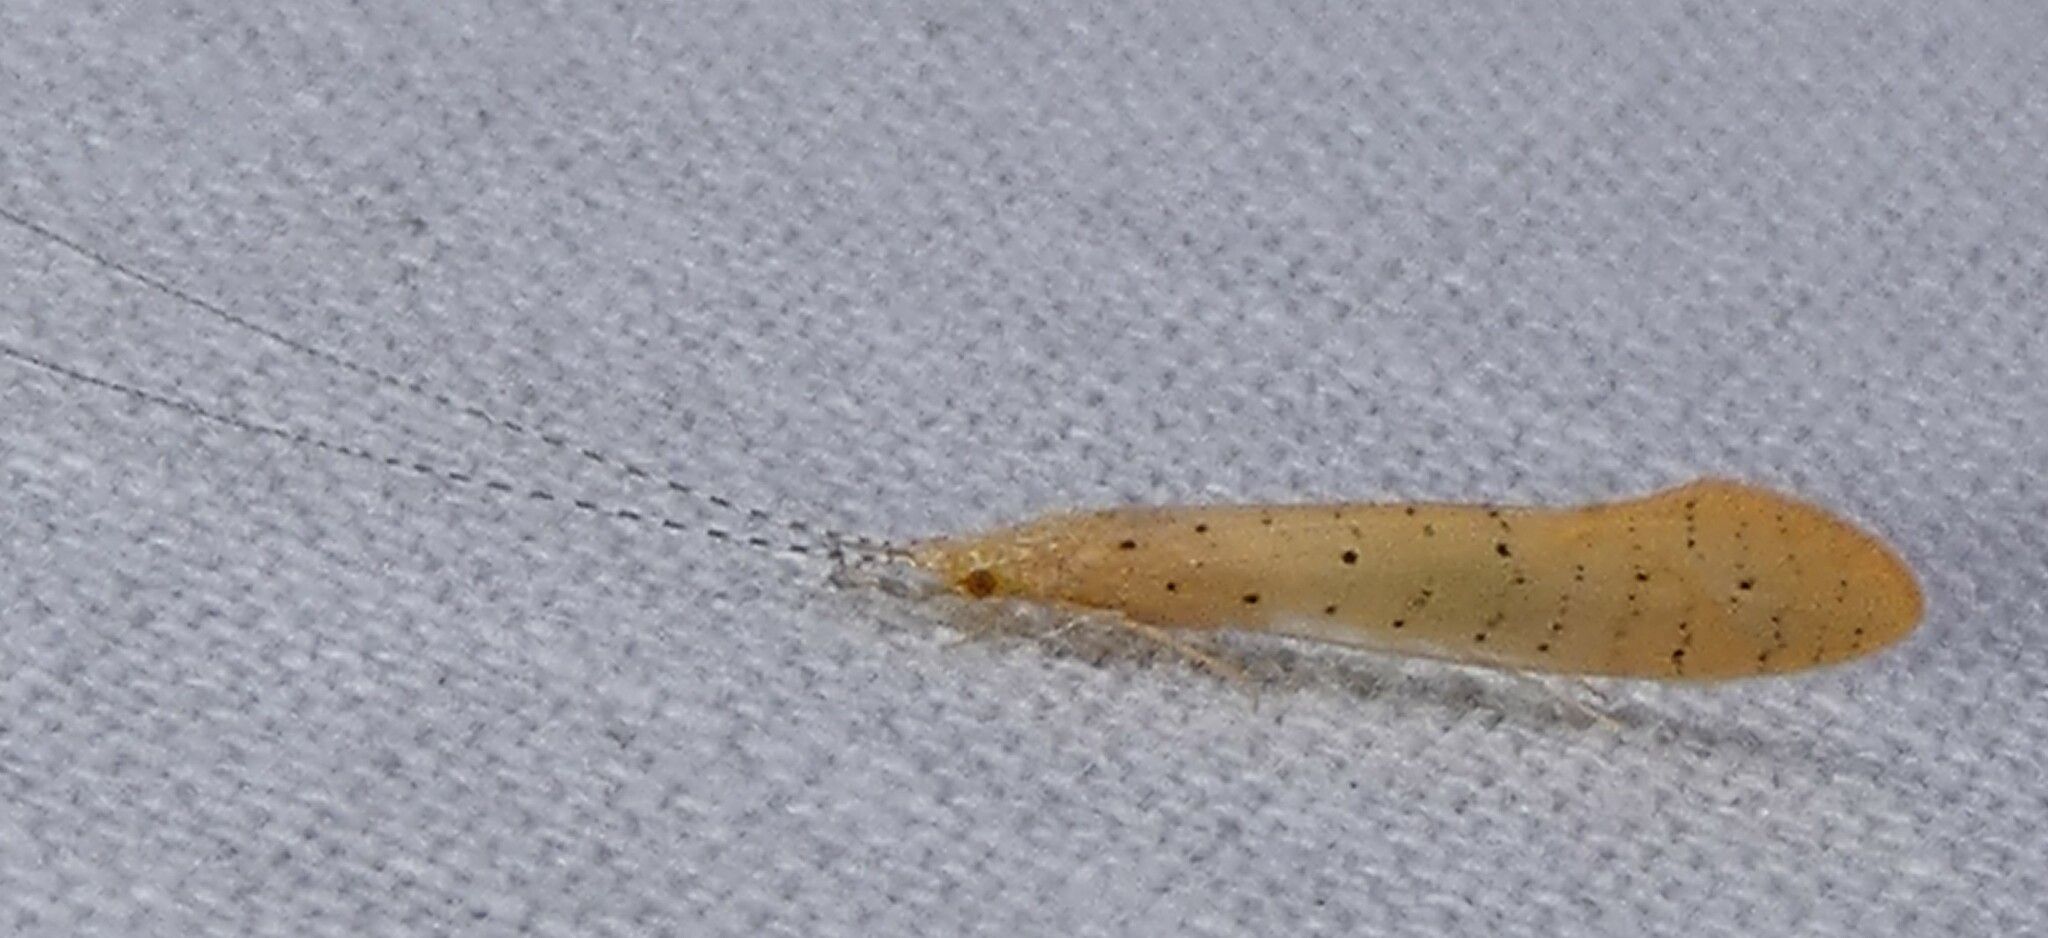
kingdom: Animalia
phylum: Arthropoda
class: Insecta
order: Trichoptera
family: Leptoceridae
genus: Nectopsyche
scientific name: Nectopsyche pavida
